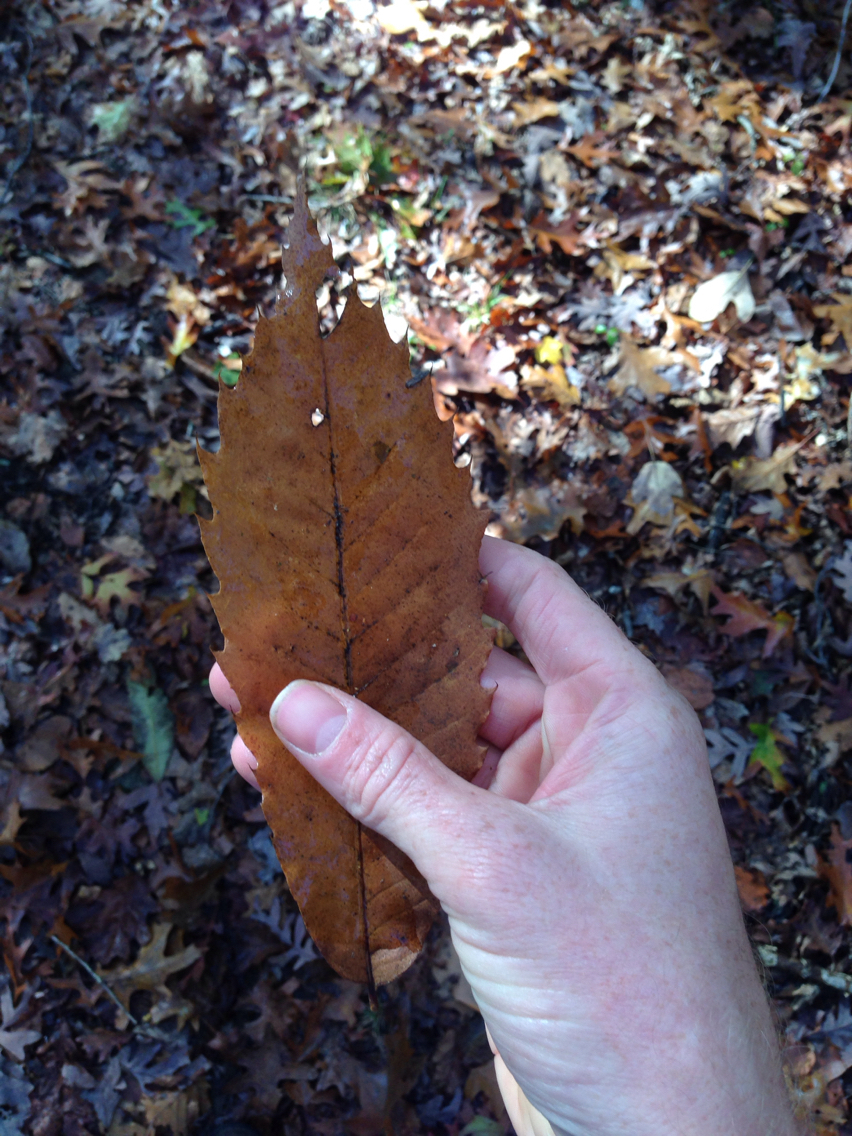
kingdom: Plantae
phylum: Tracheophyta
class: Magnoliopsida
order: Fagales
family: Fagaceae
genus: Castanea
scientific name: Castanea dentata
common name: American chestnut
